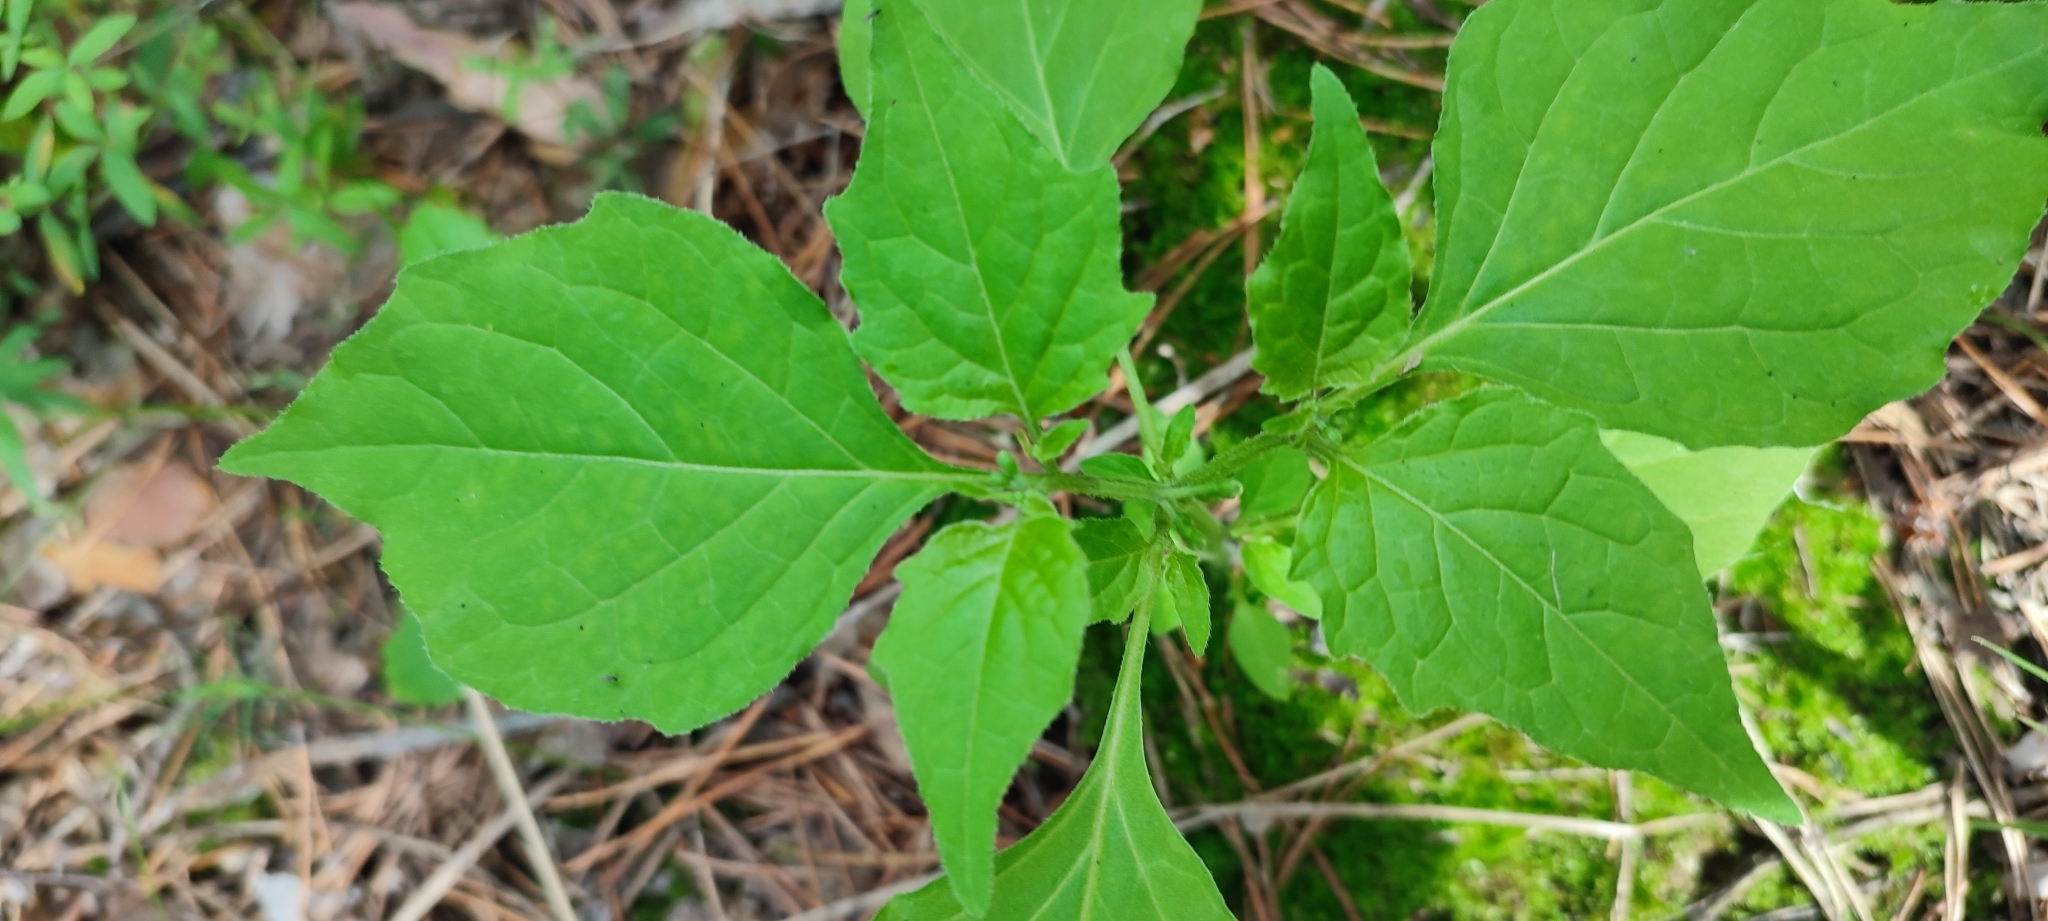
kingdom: Plantae
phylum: Tracheophyta
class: Magnoliopsida
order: Solanales
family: Solanaceae
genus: Solanum
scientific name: Solanum nigrum
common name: Black nightshade
